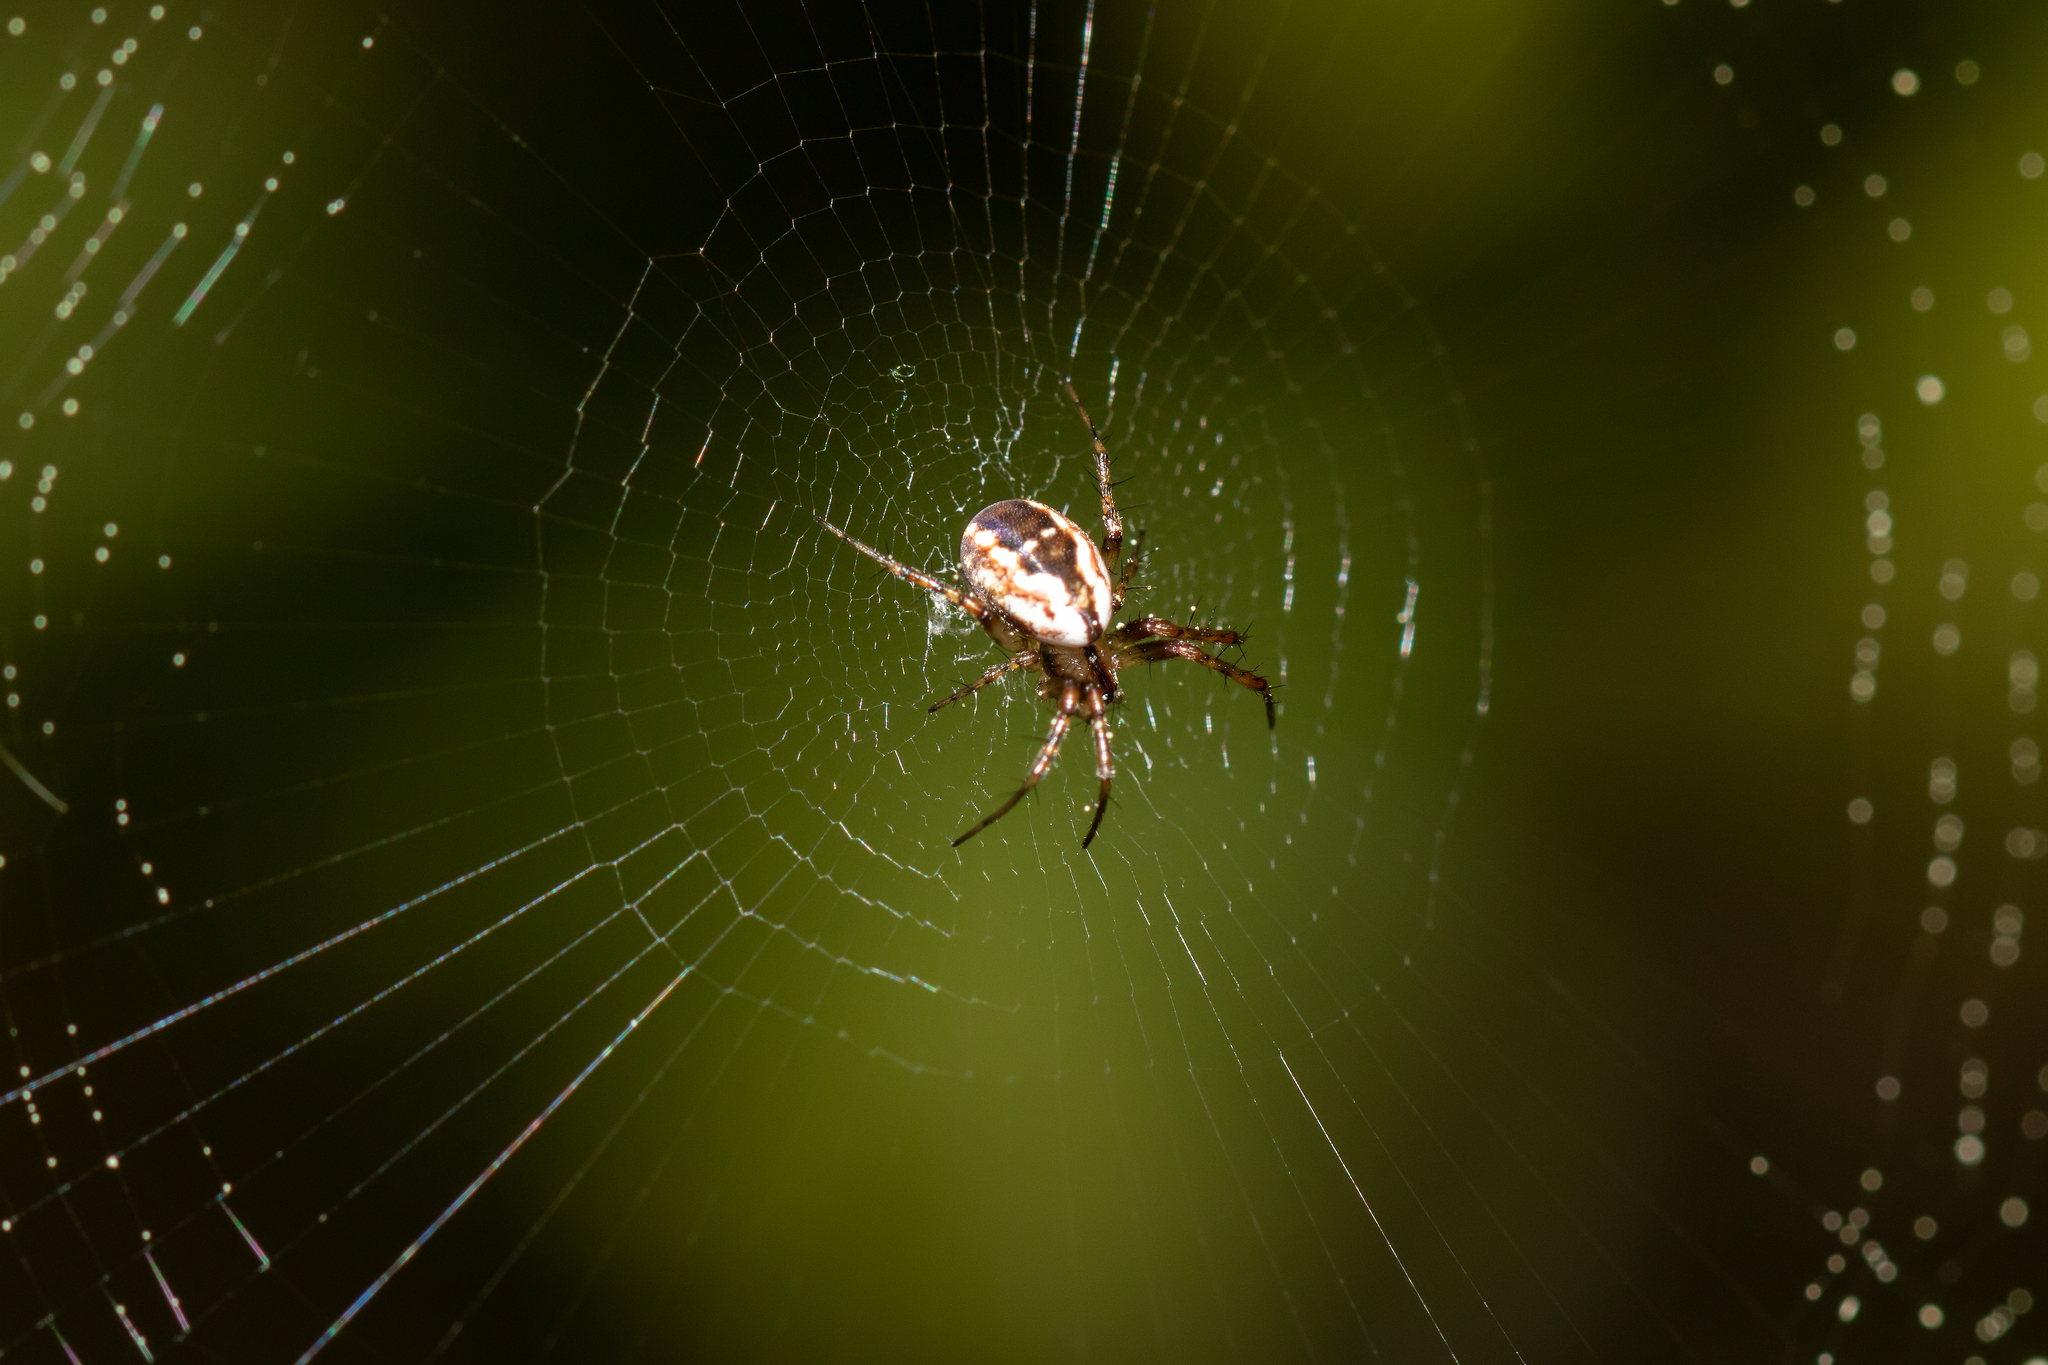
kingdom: Animalia
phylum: Arthropoda
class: Arachnida
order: Araneae
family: Araneidae
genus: Mangora
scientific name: Mangora placida
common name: Tuft-legged orbweaver
